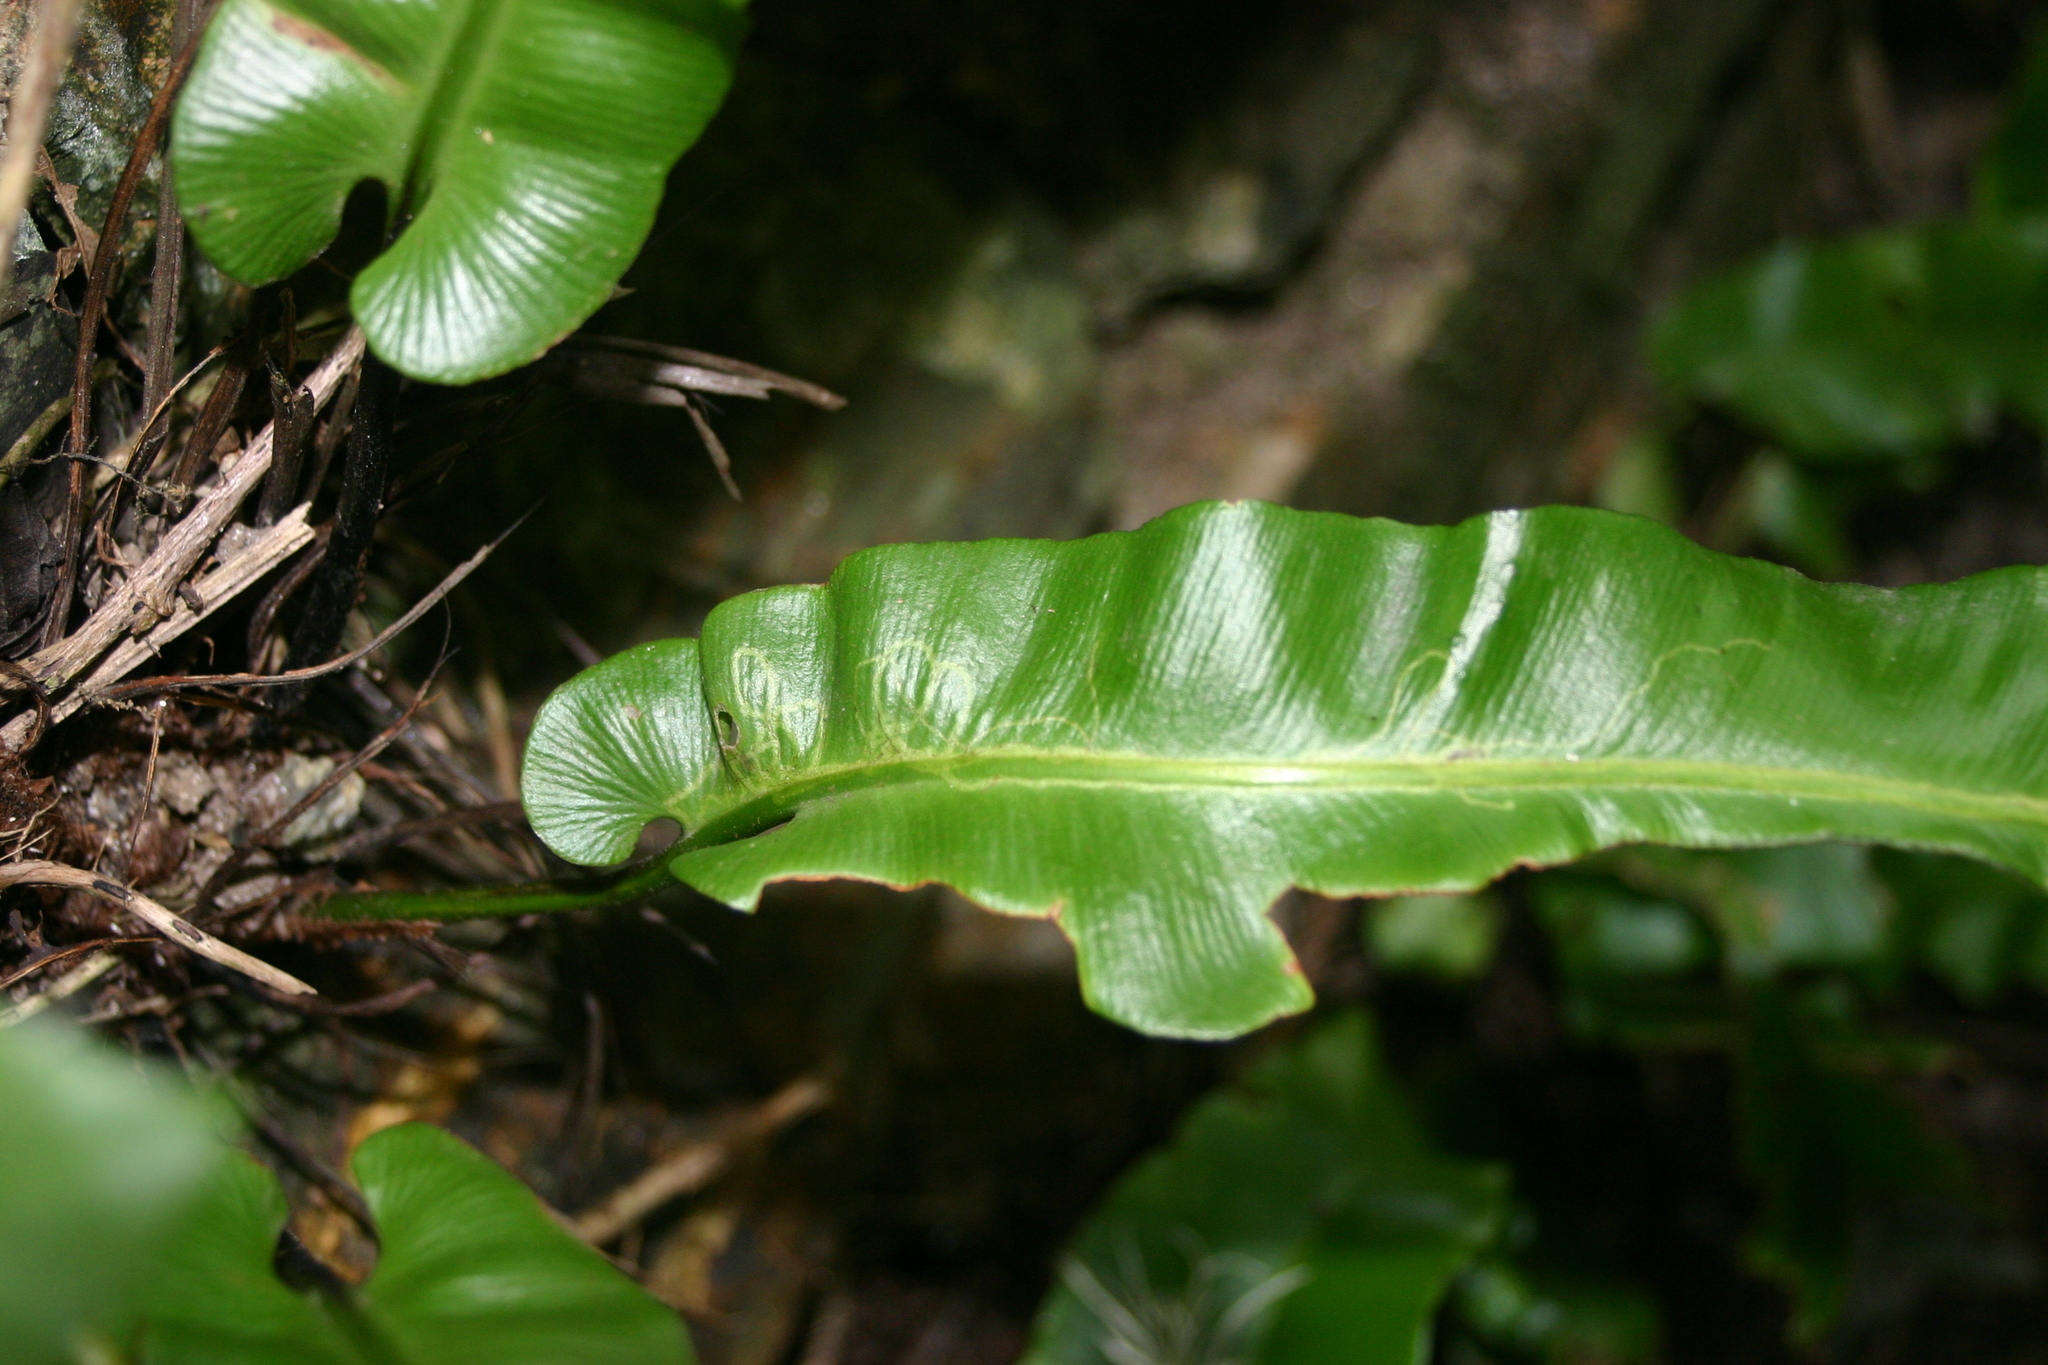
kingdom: Animalia
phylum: Arthropoda
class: Insecta
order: Diptera
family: Agromyzidae
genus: Phytomyza
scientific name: Phytomyza scolopendri
